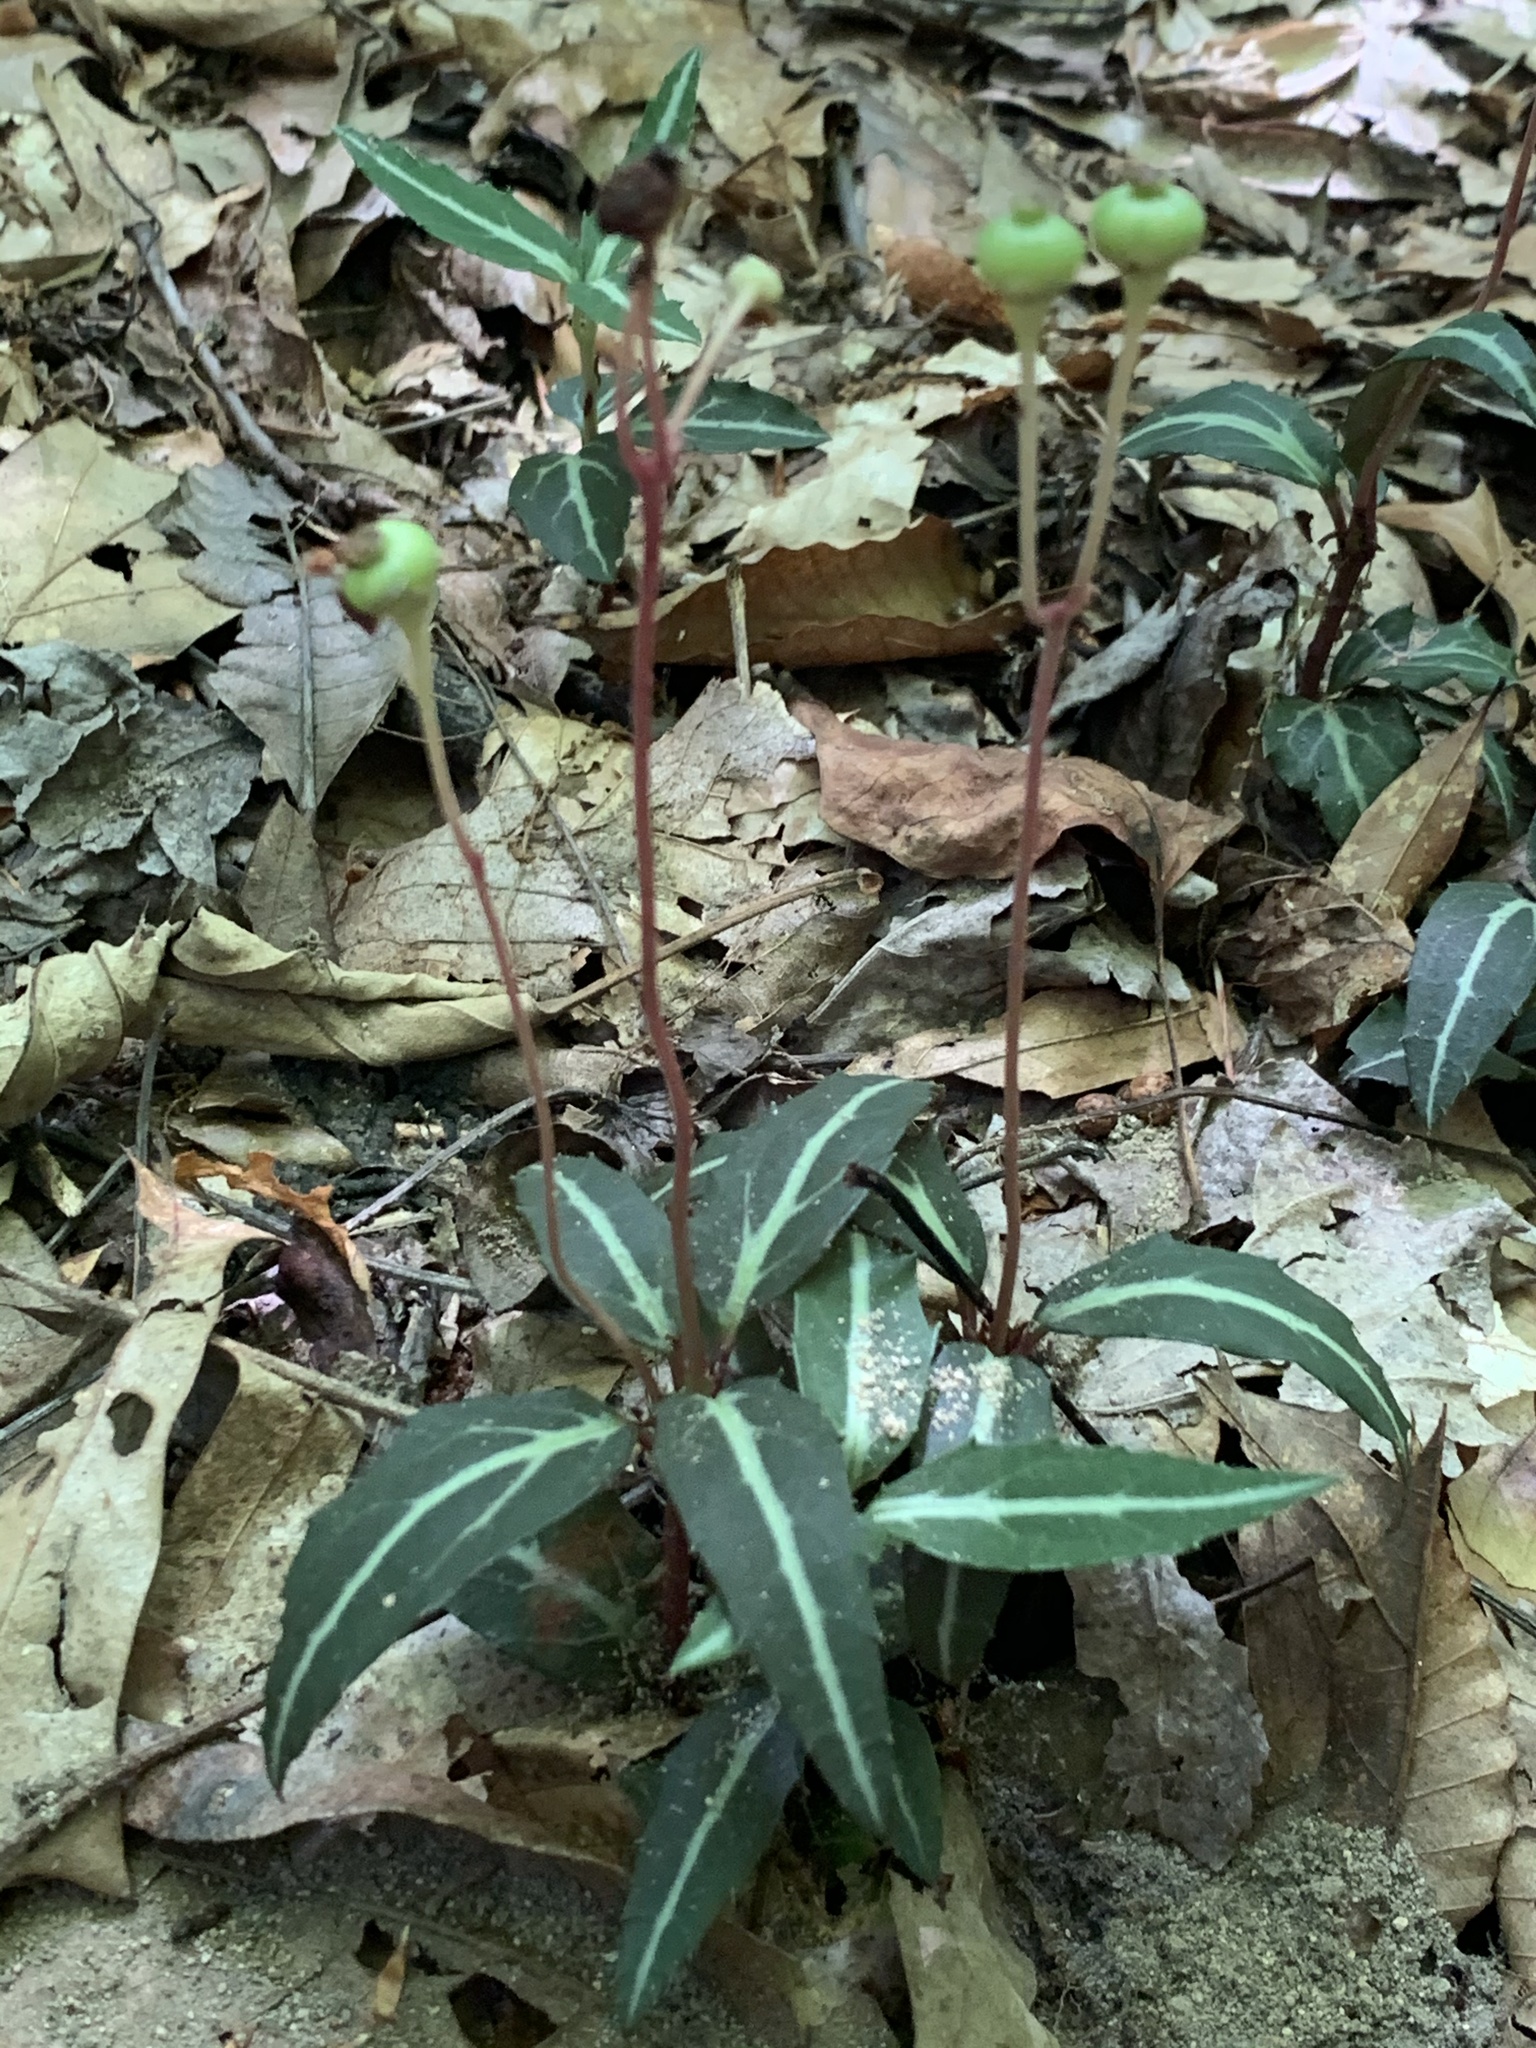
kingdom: Plantae
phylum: Tracheophyta
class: Magnoliopsida
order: Ericales
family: Ericaceae
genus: Chimaphila
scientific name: Chimaphila maculata
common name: Spotted pipsissewa
